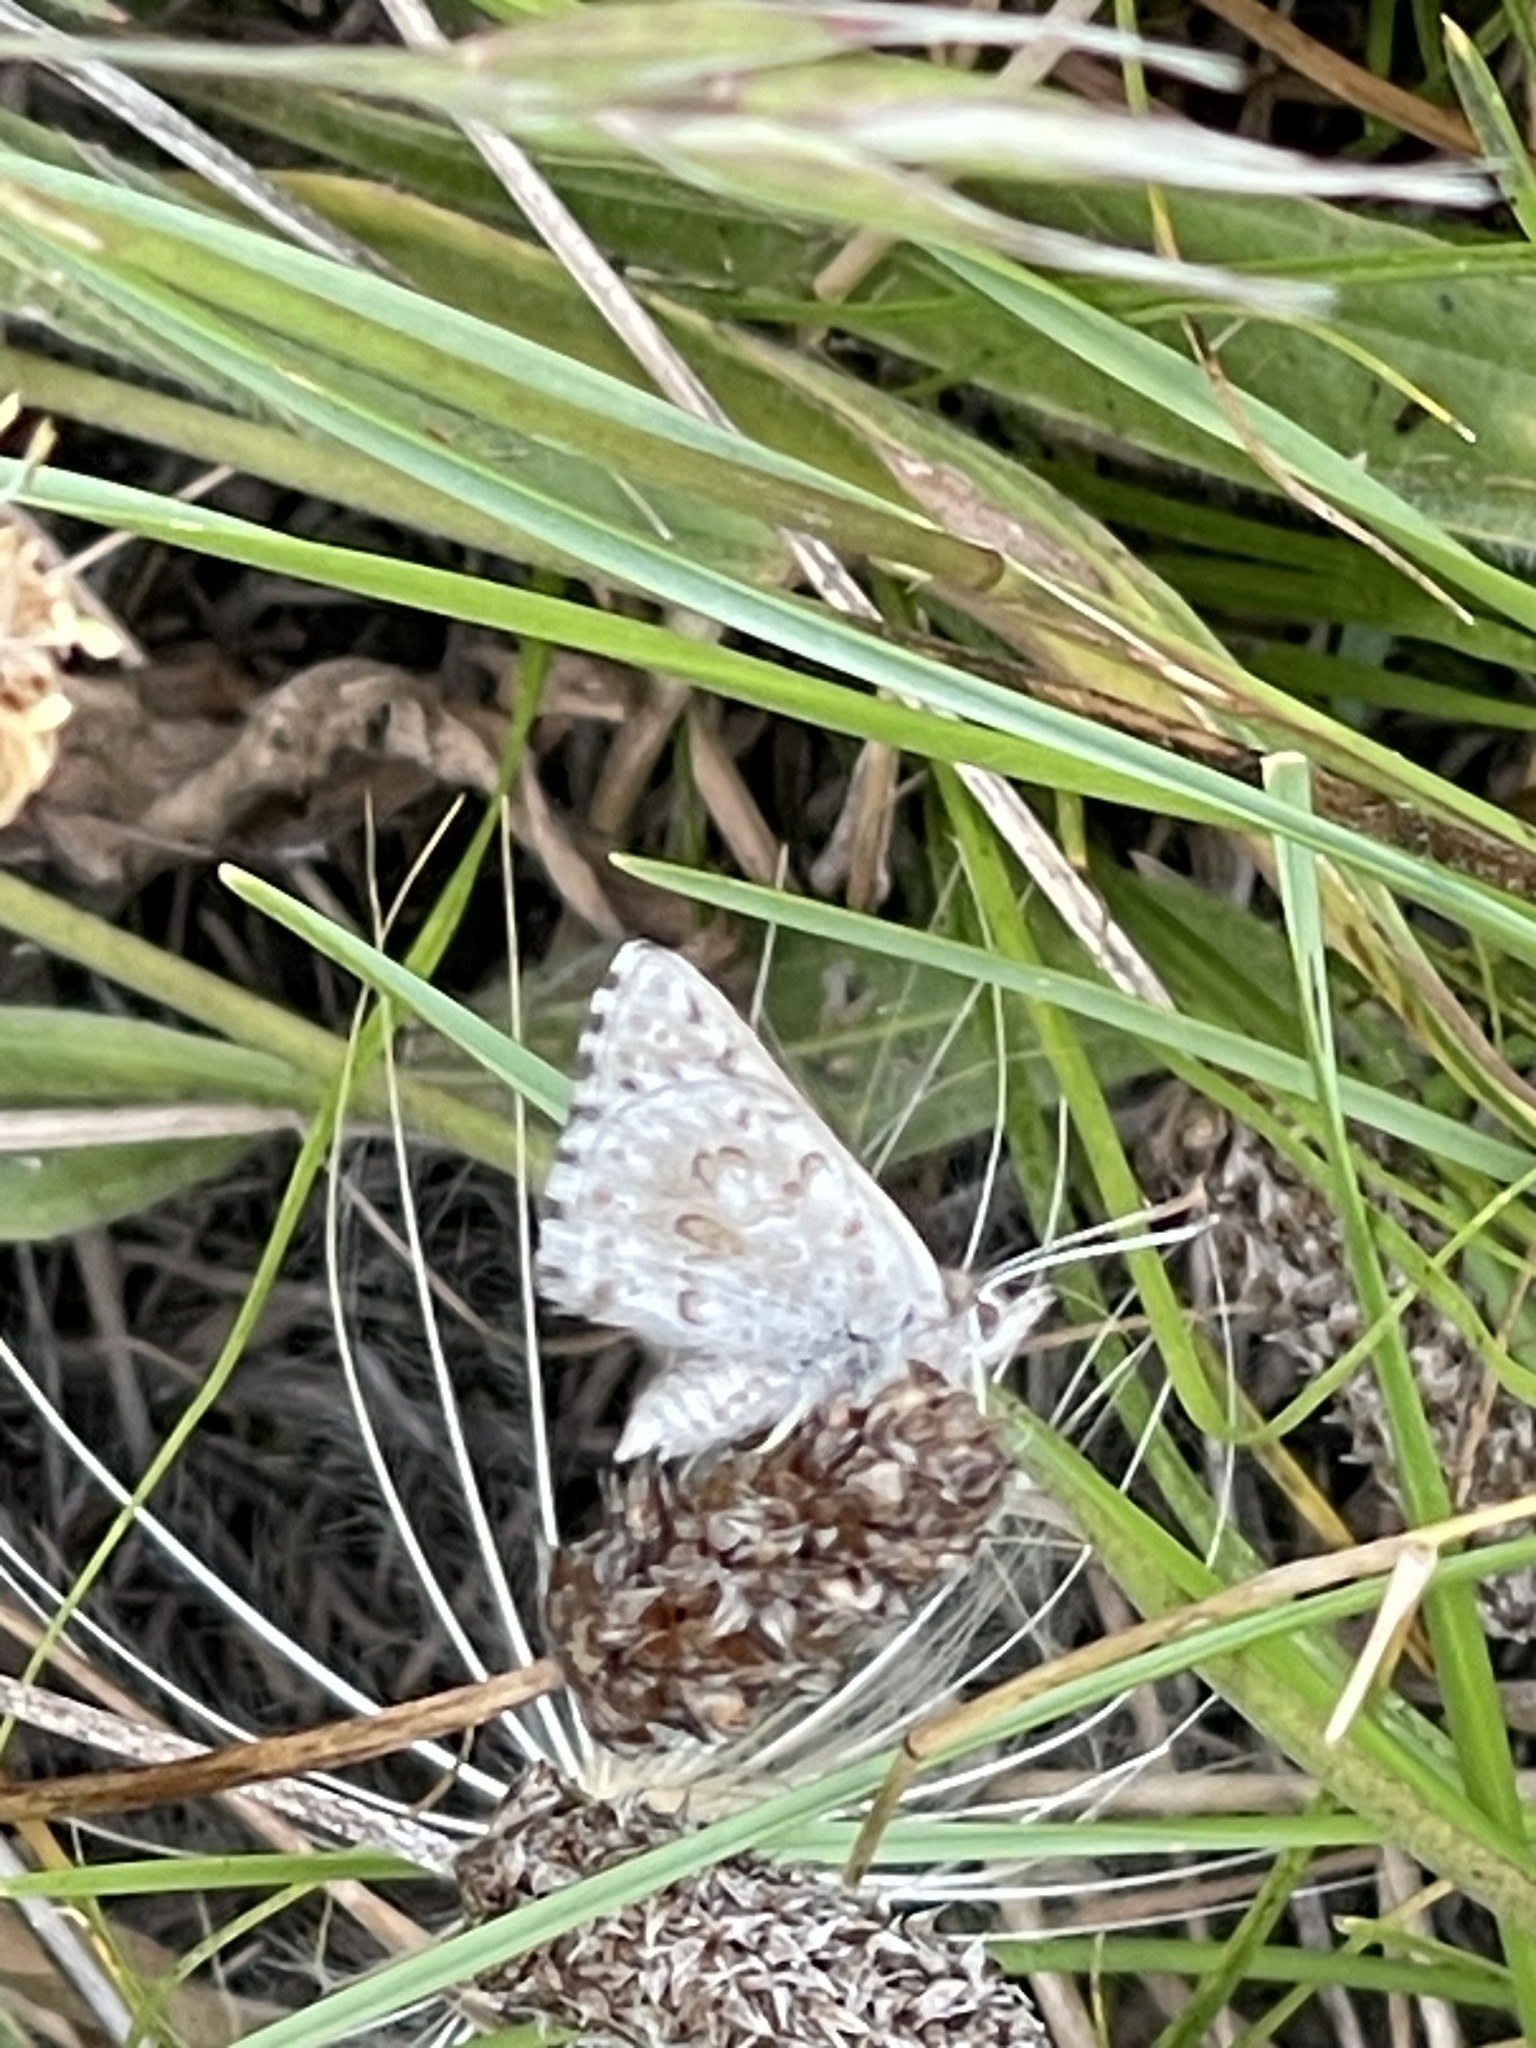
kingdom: Animalia
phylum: Arthropoda
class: Insecta
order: Lepidoptera
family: Lycaenidae
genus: Lucia
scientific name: Lucia limbaria
